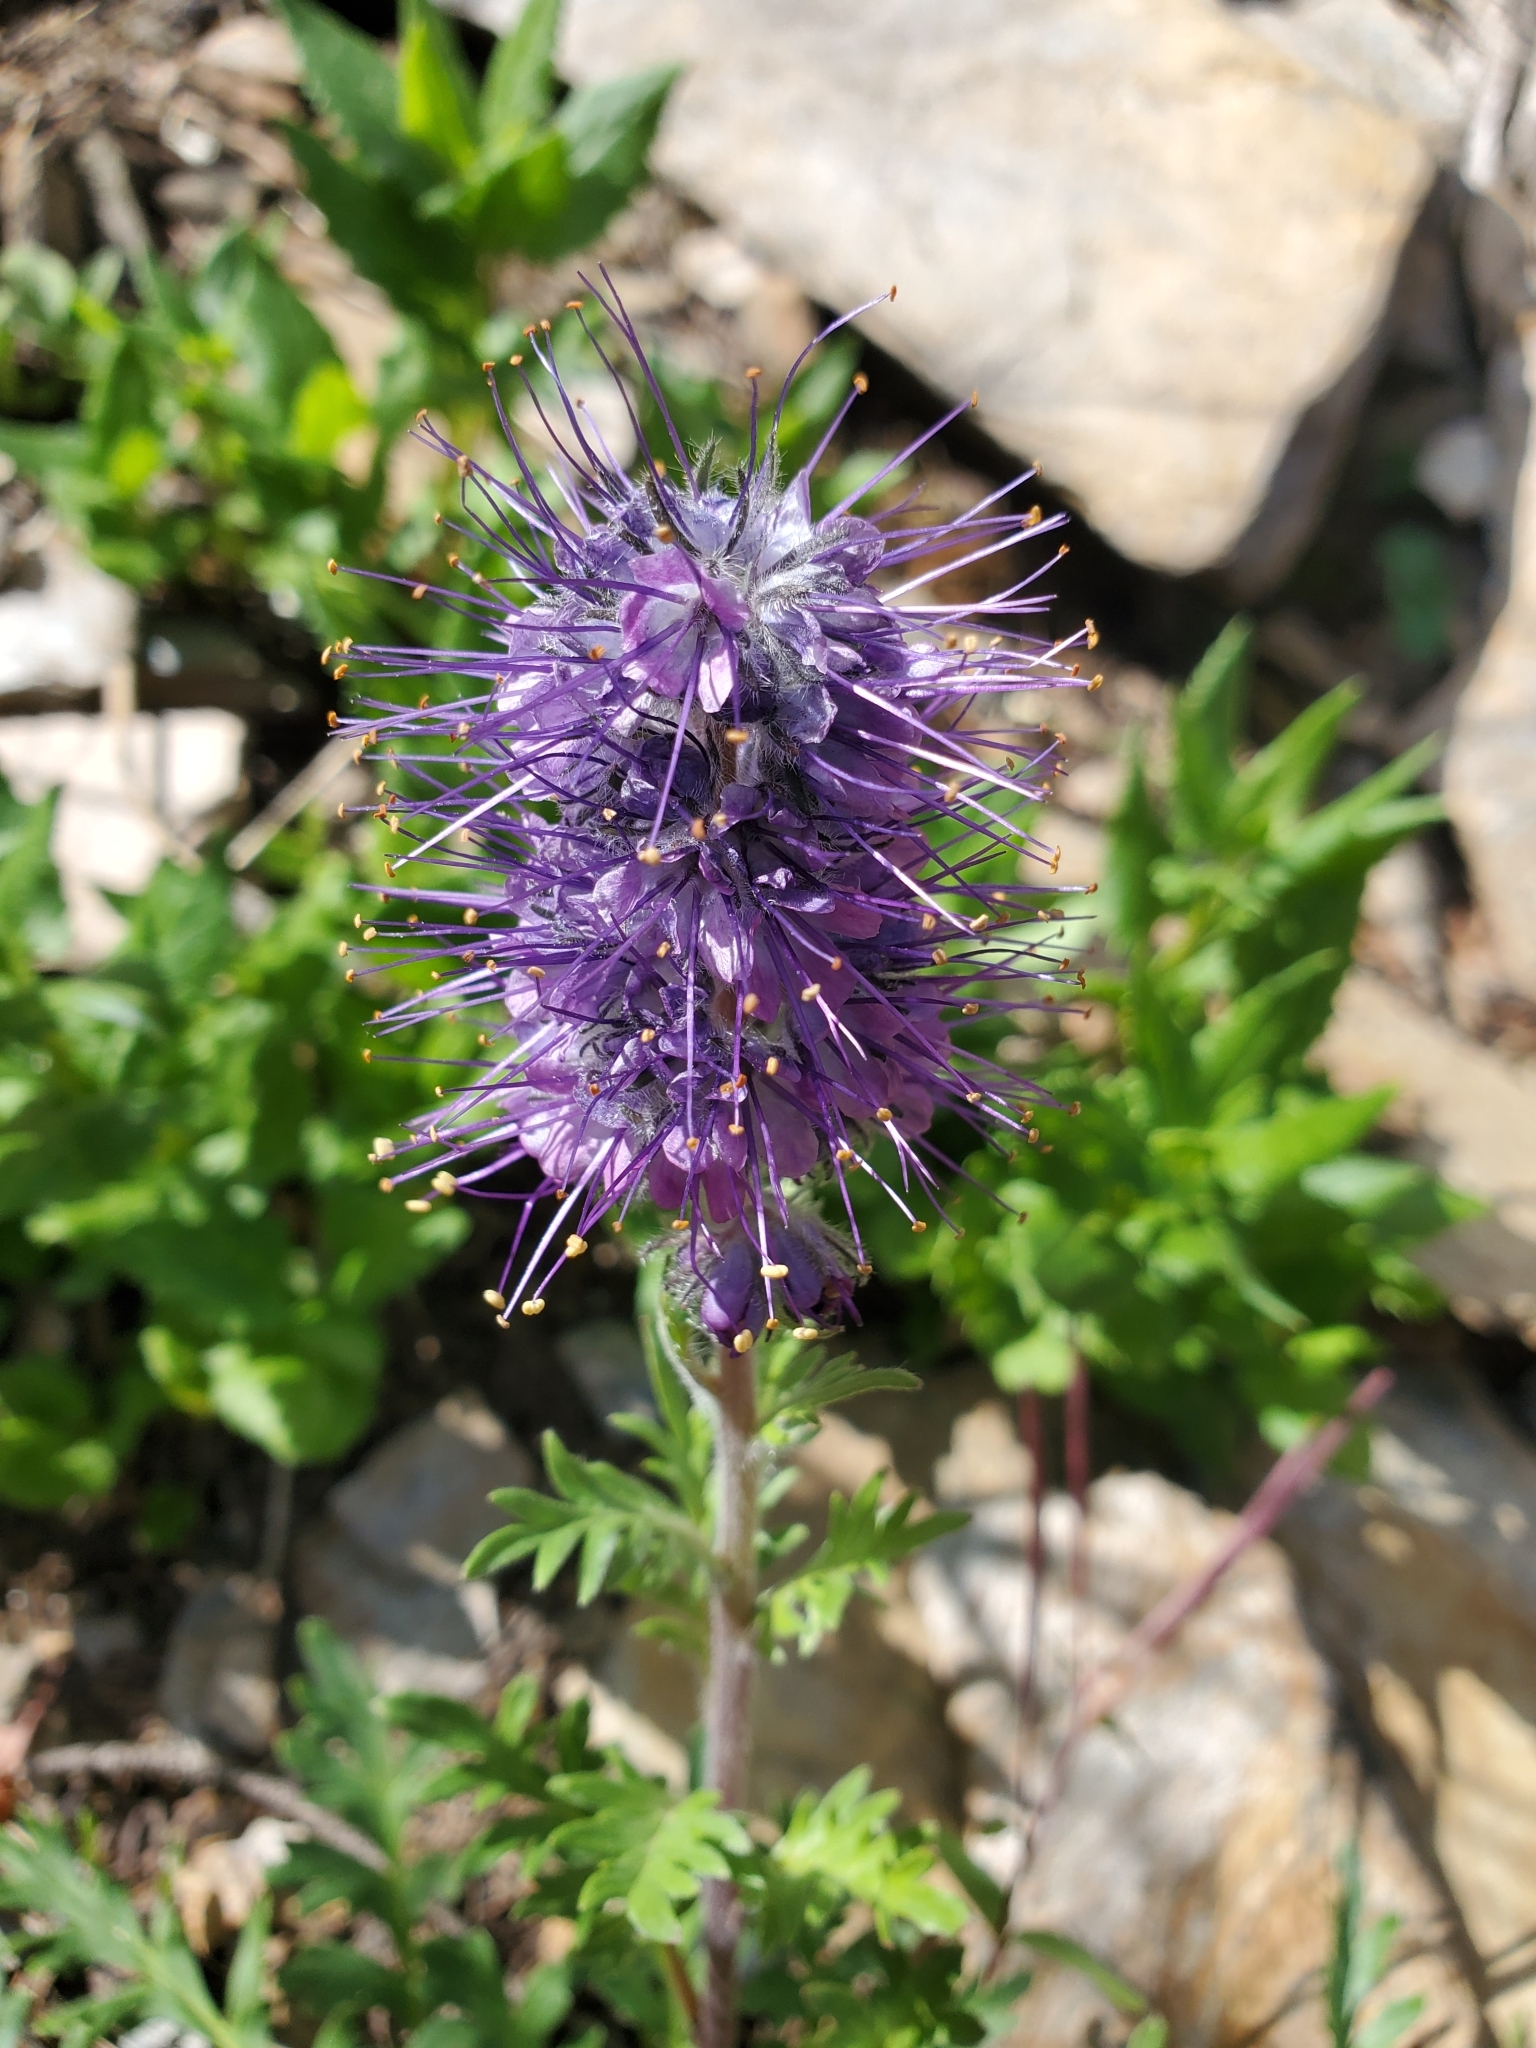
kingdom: Plantae
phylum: Tracheophyta
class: Magnoliopsida
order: Boraginales
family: Hydrophyllaceae
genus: Phacelia
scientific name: Phacelia sericea
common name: Silky phacelia
